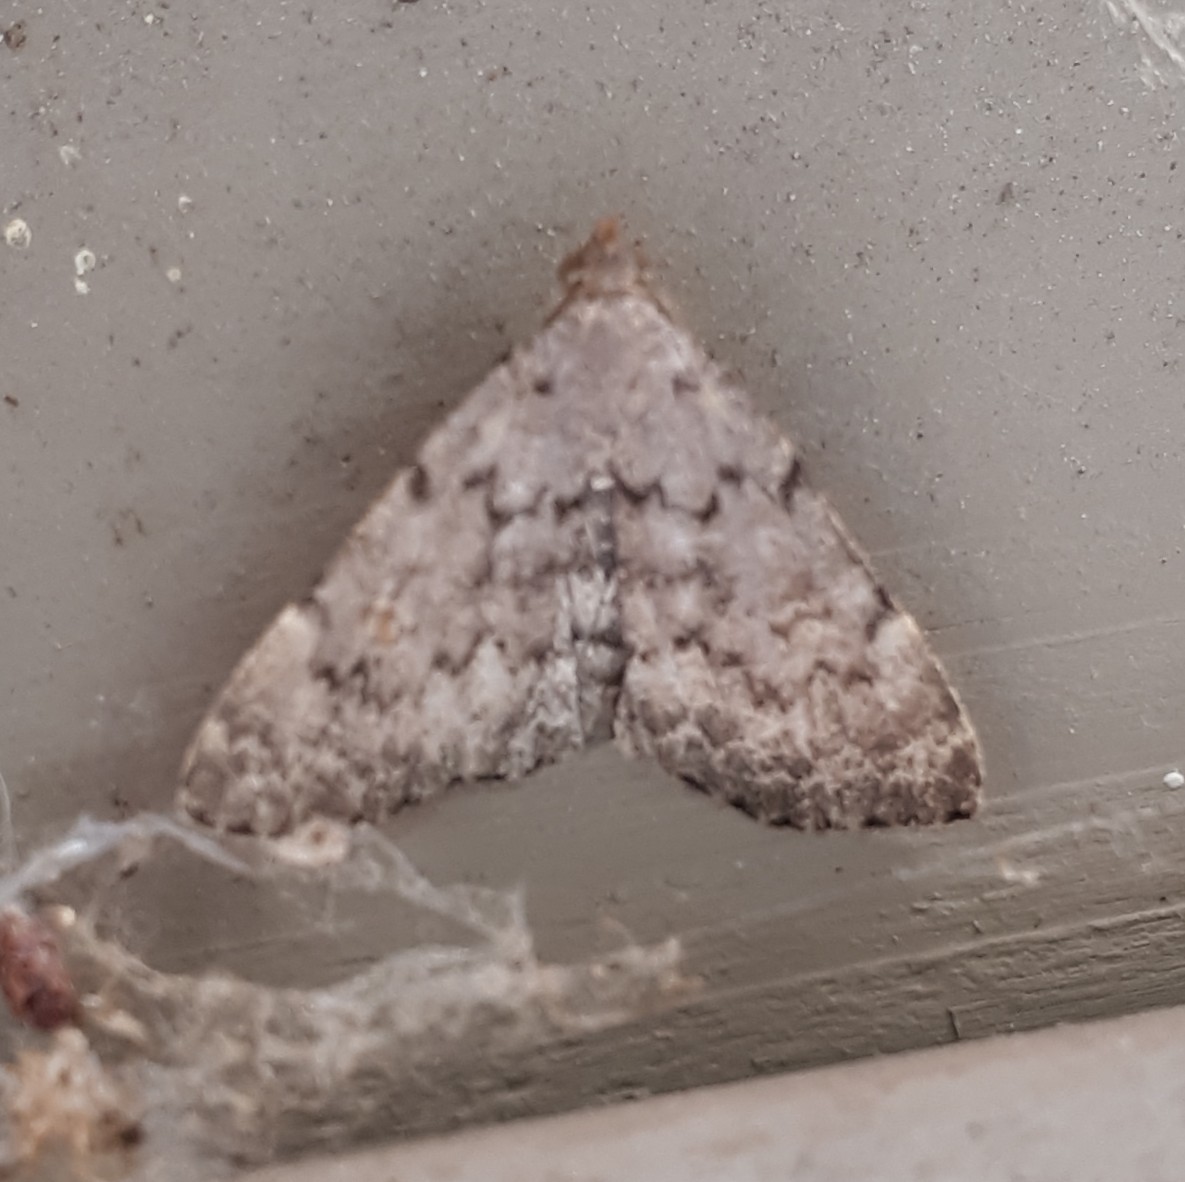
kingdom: Animalia
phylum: Arthropoda
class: Insecta
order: Lepidoptera
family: Erebidae
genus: Idia
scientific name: Idia aemula
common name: Common idia moth
